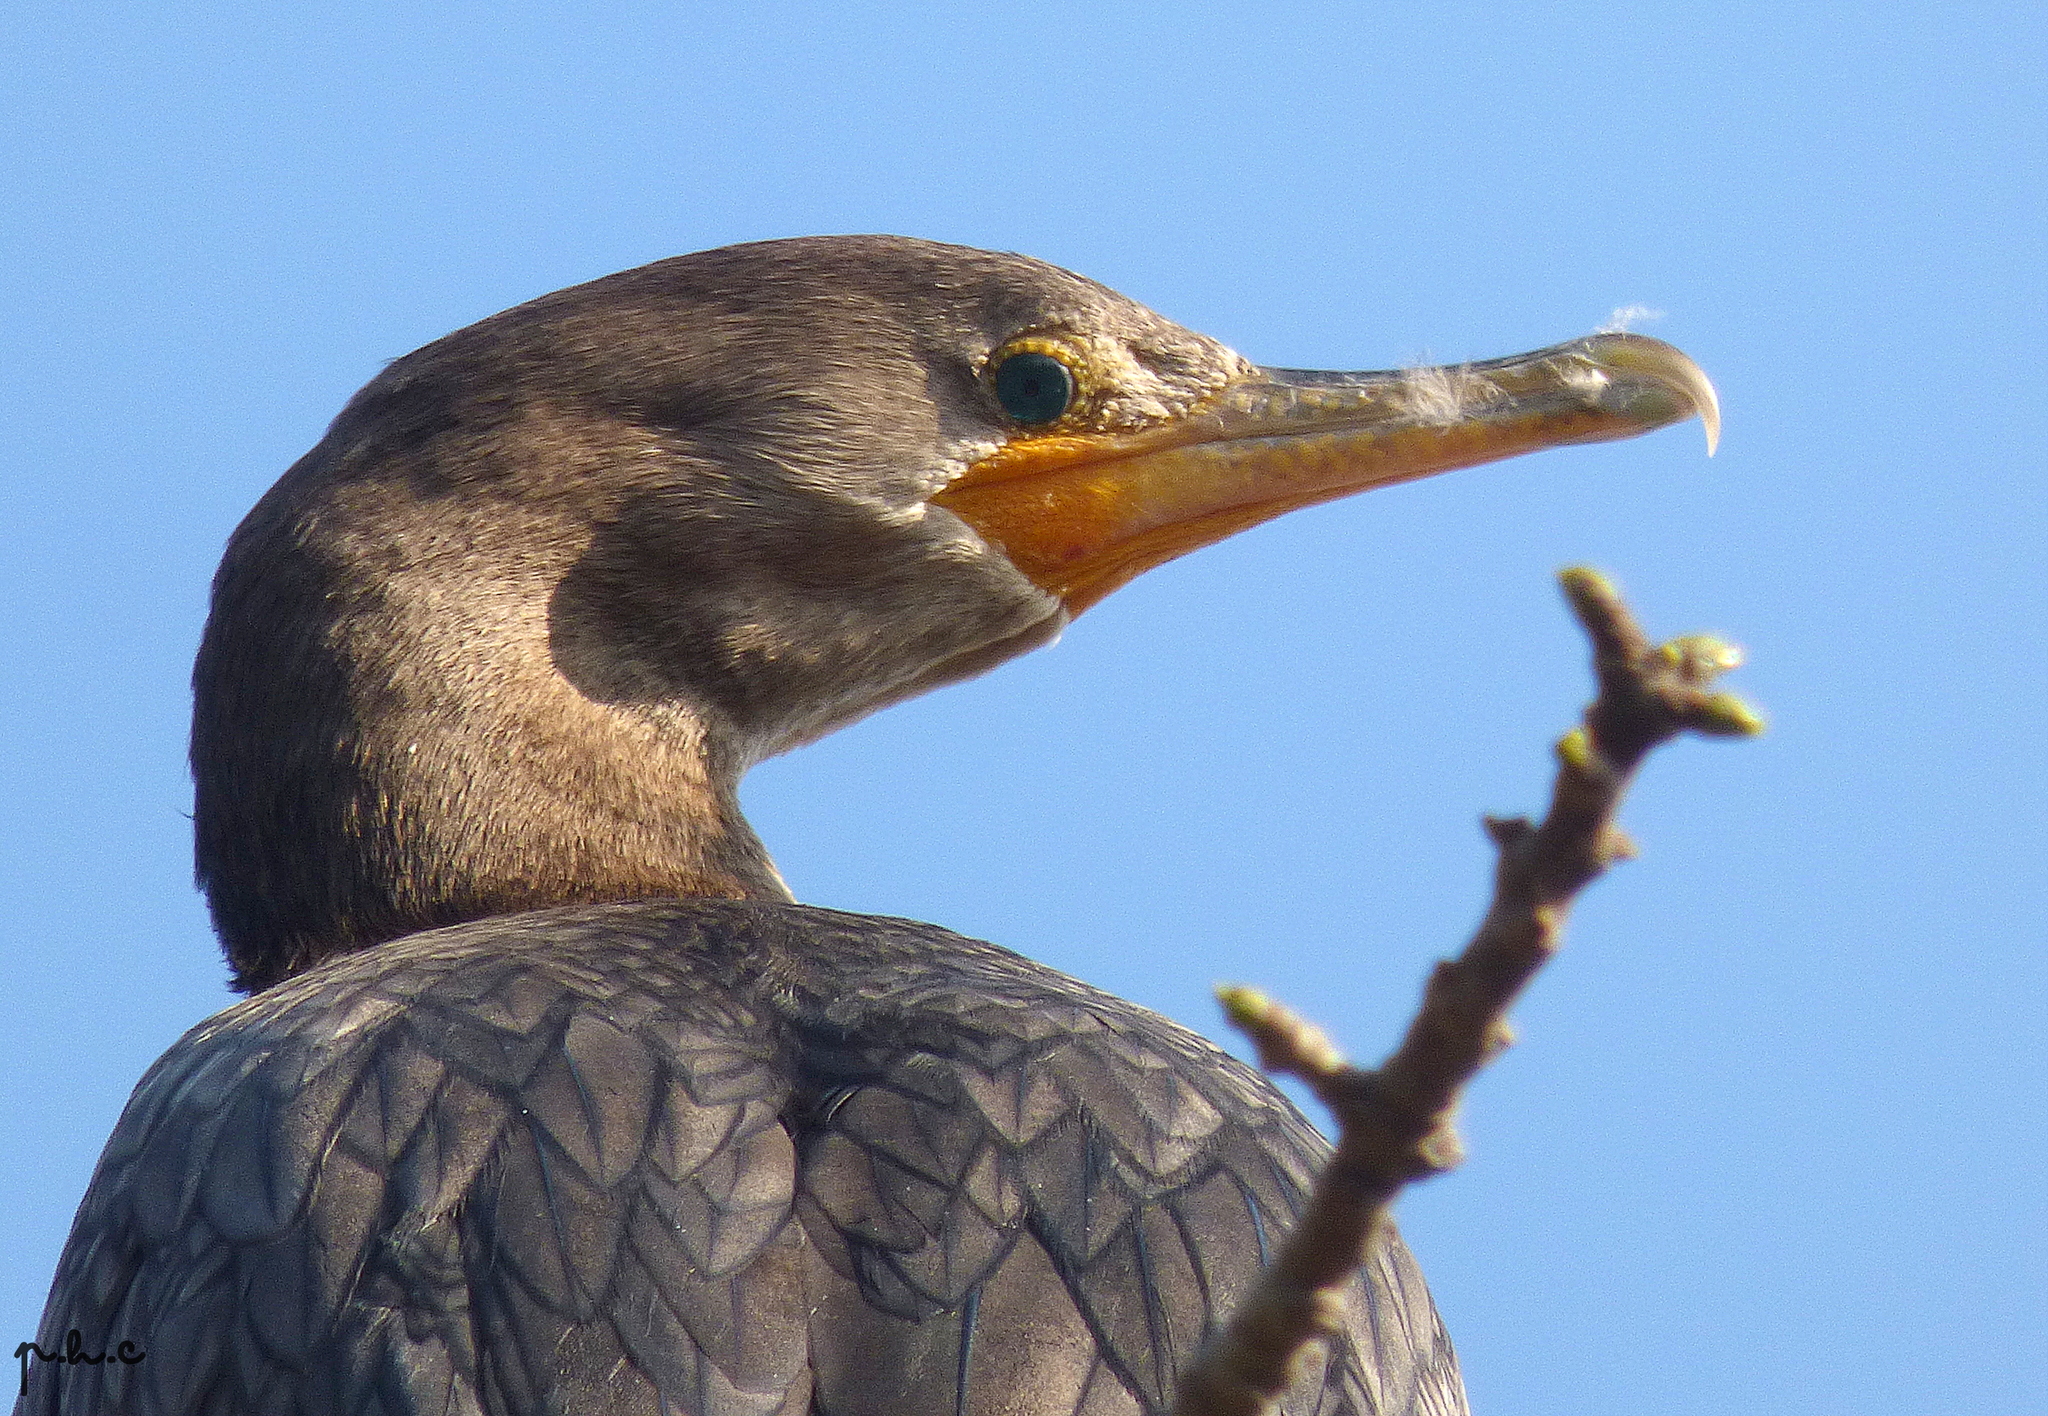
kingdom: Animalia
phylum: Chordata
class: Aves
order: Suliformes
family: Phalacrocoracidae
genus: Phalacrocorax
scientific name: Phalacrocorax brasilianus
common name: Neotropic cormorant
